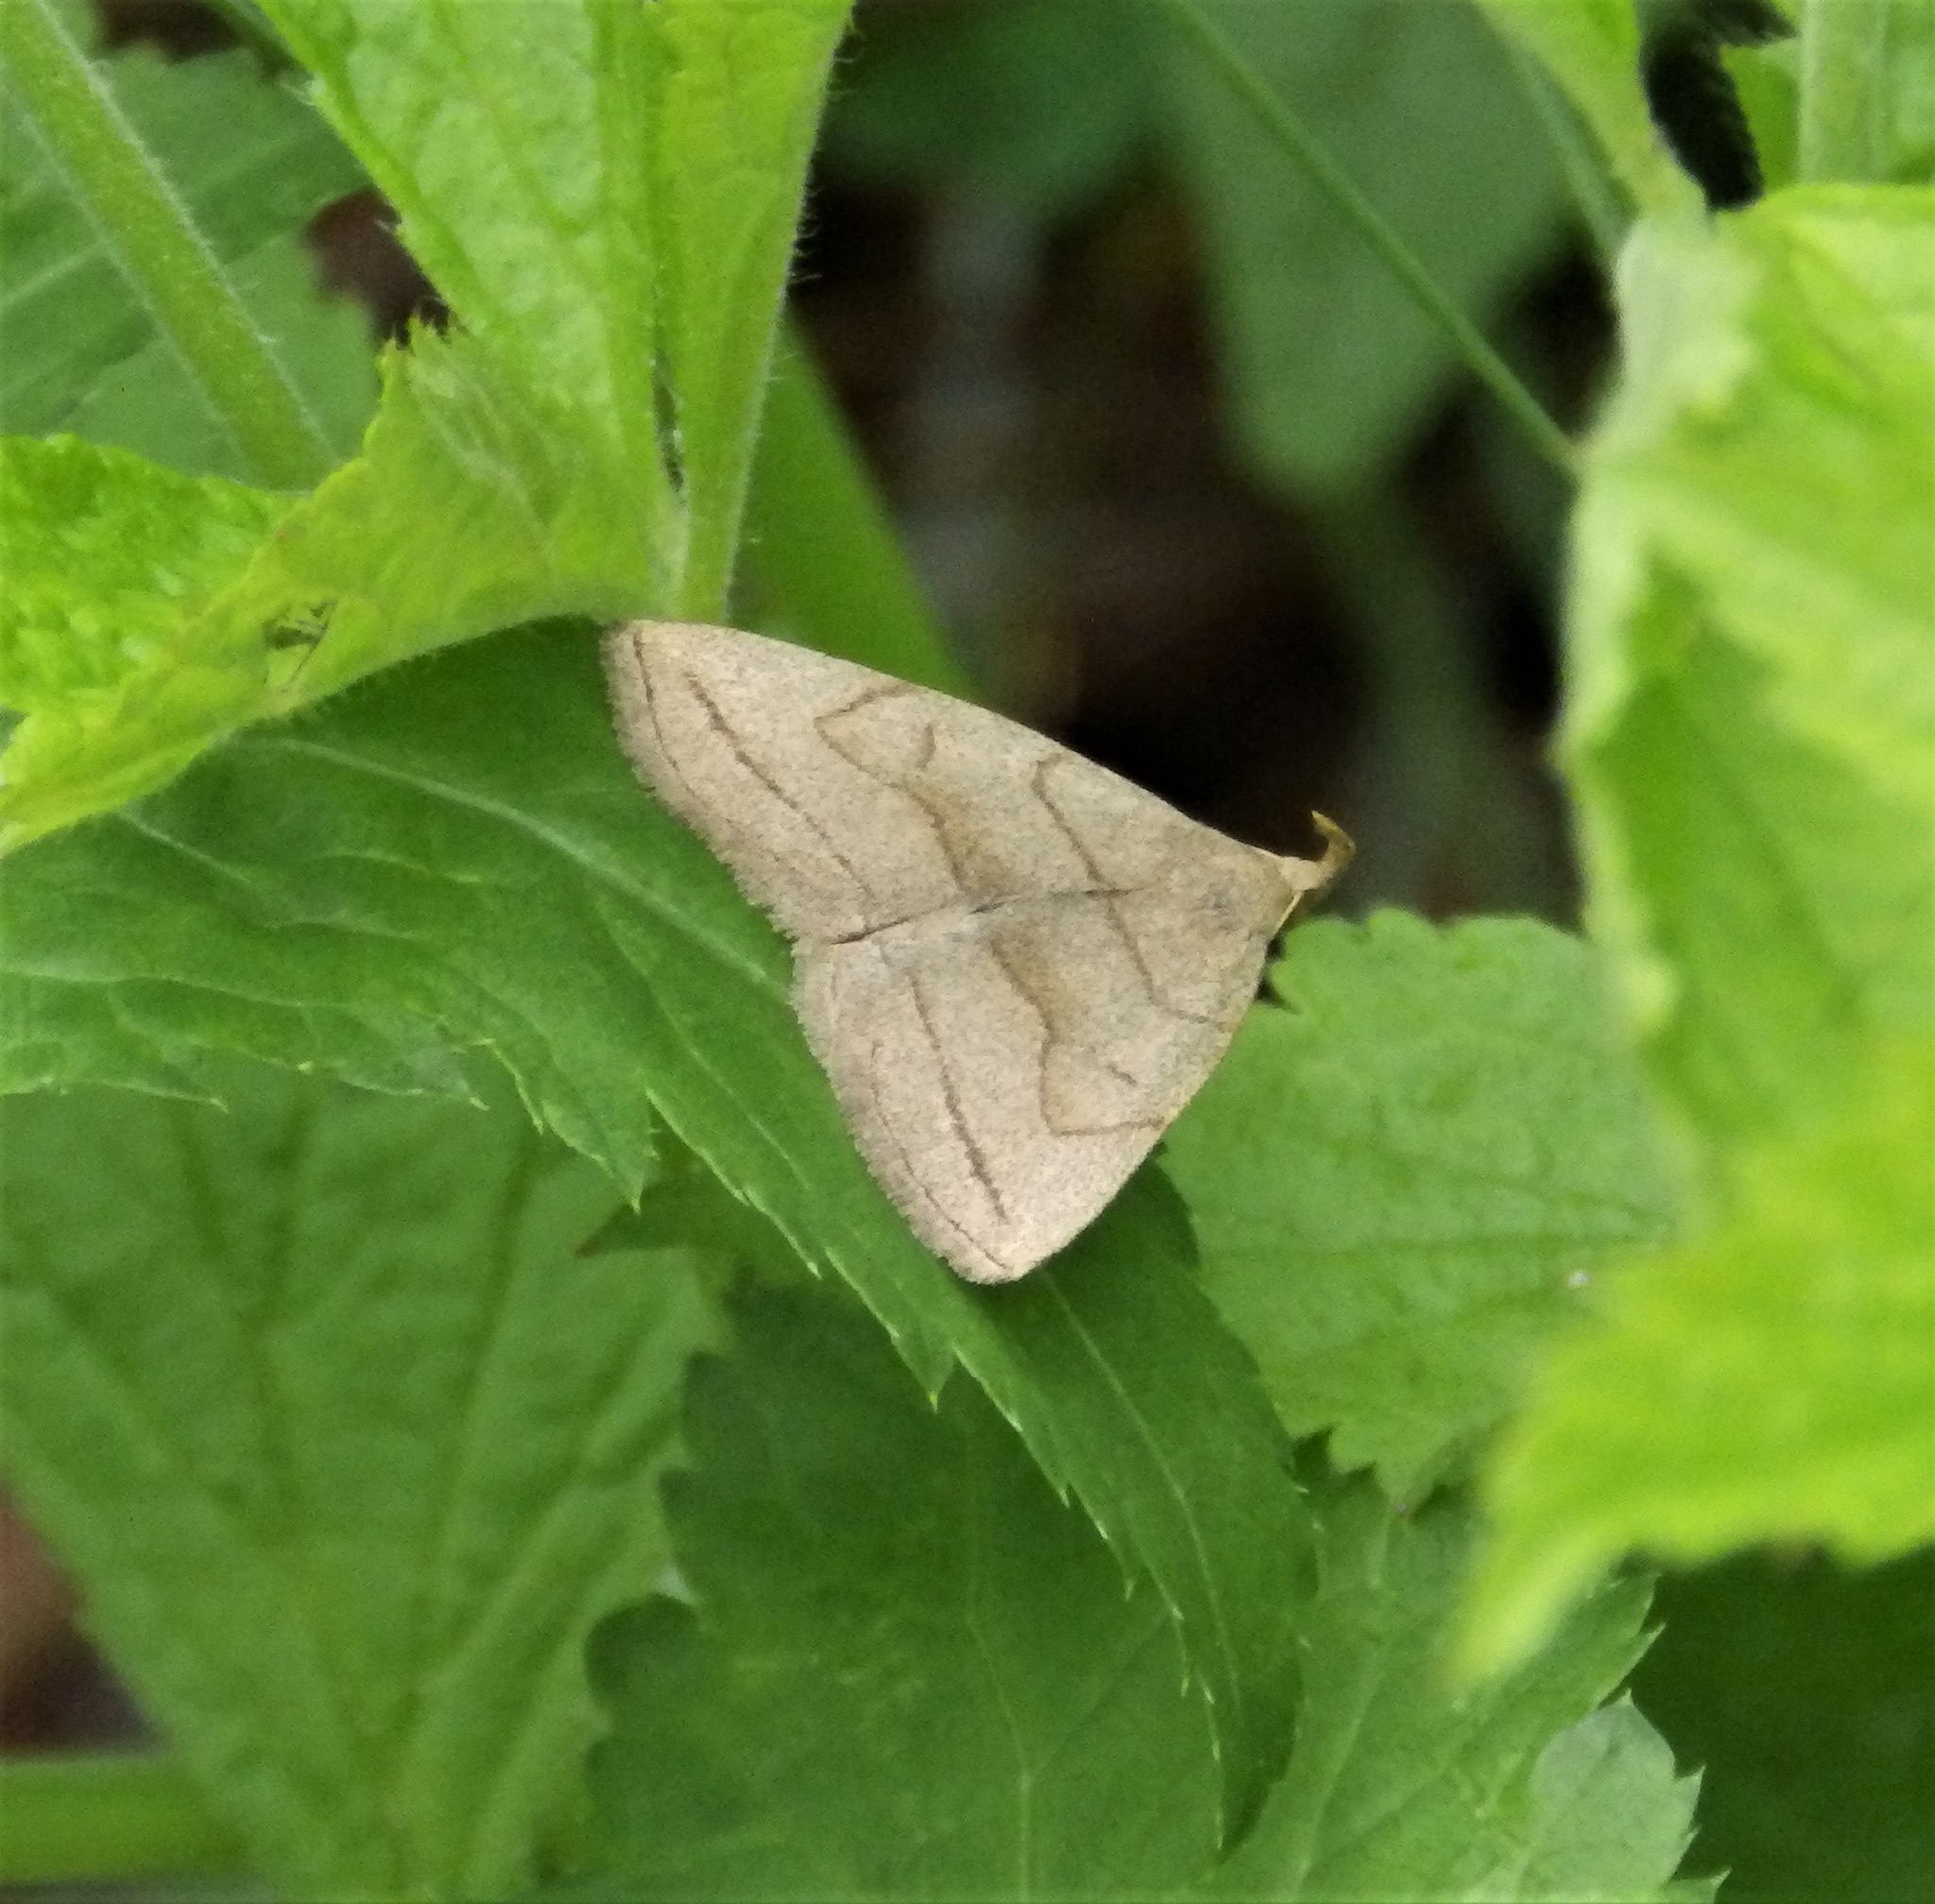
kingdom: Animalia
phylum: Arthropoda
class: Insecta
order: Lepidoptera
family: Erebidae
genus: Zanclognatha
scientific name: Zanclognatha pedipilalis
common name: Grayish fan-foot
